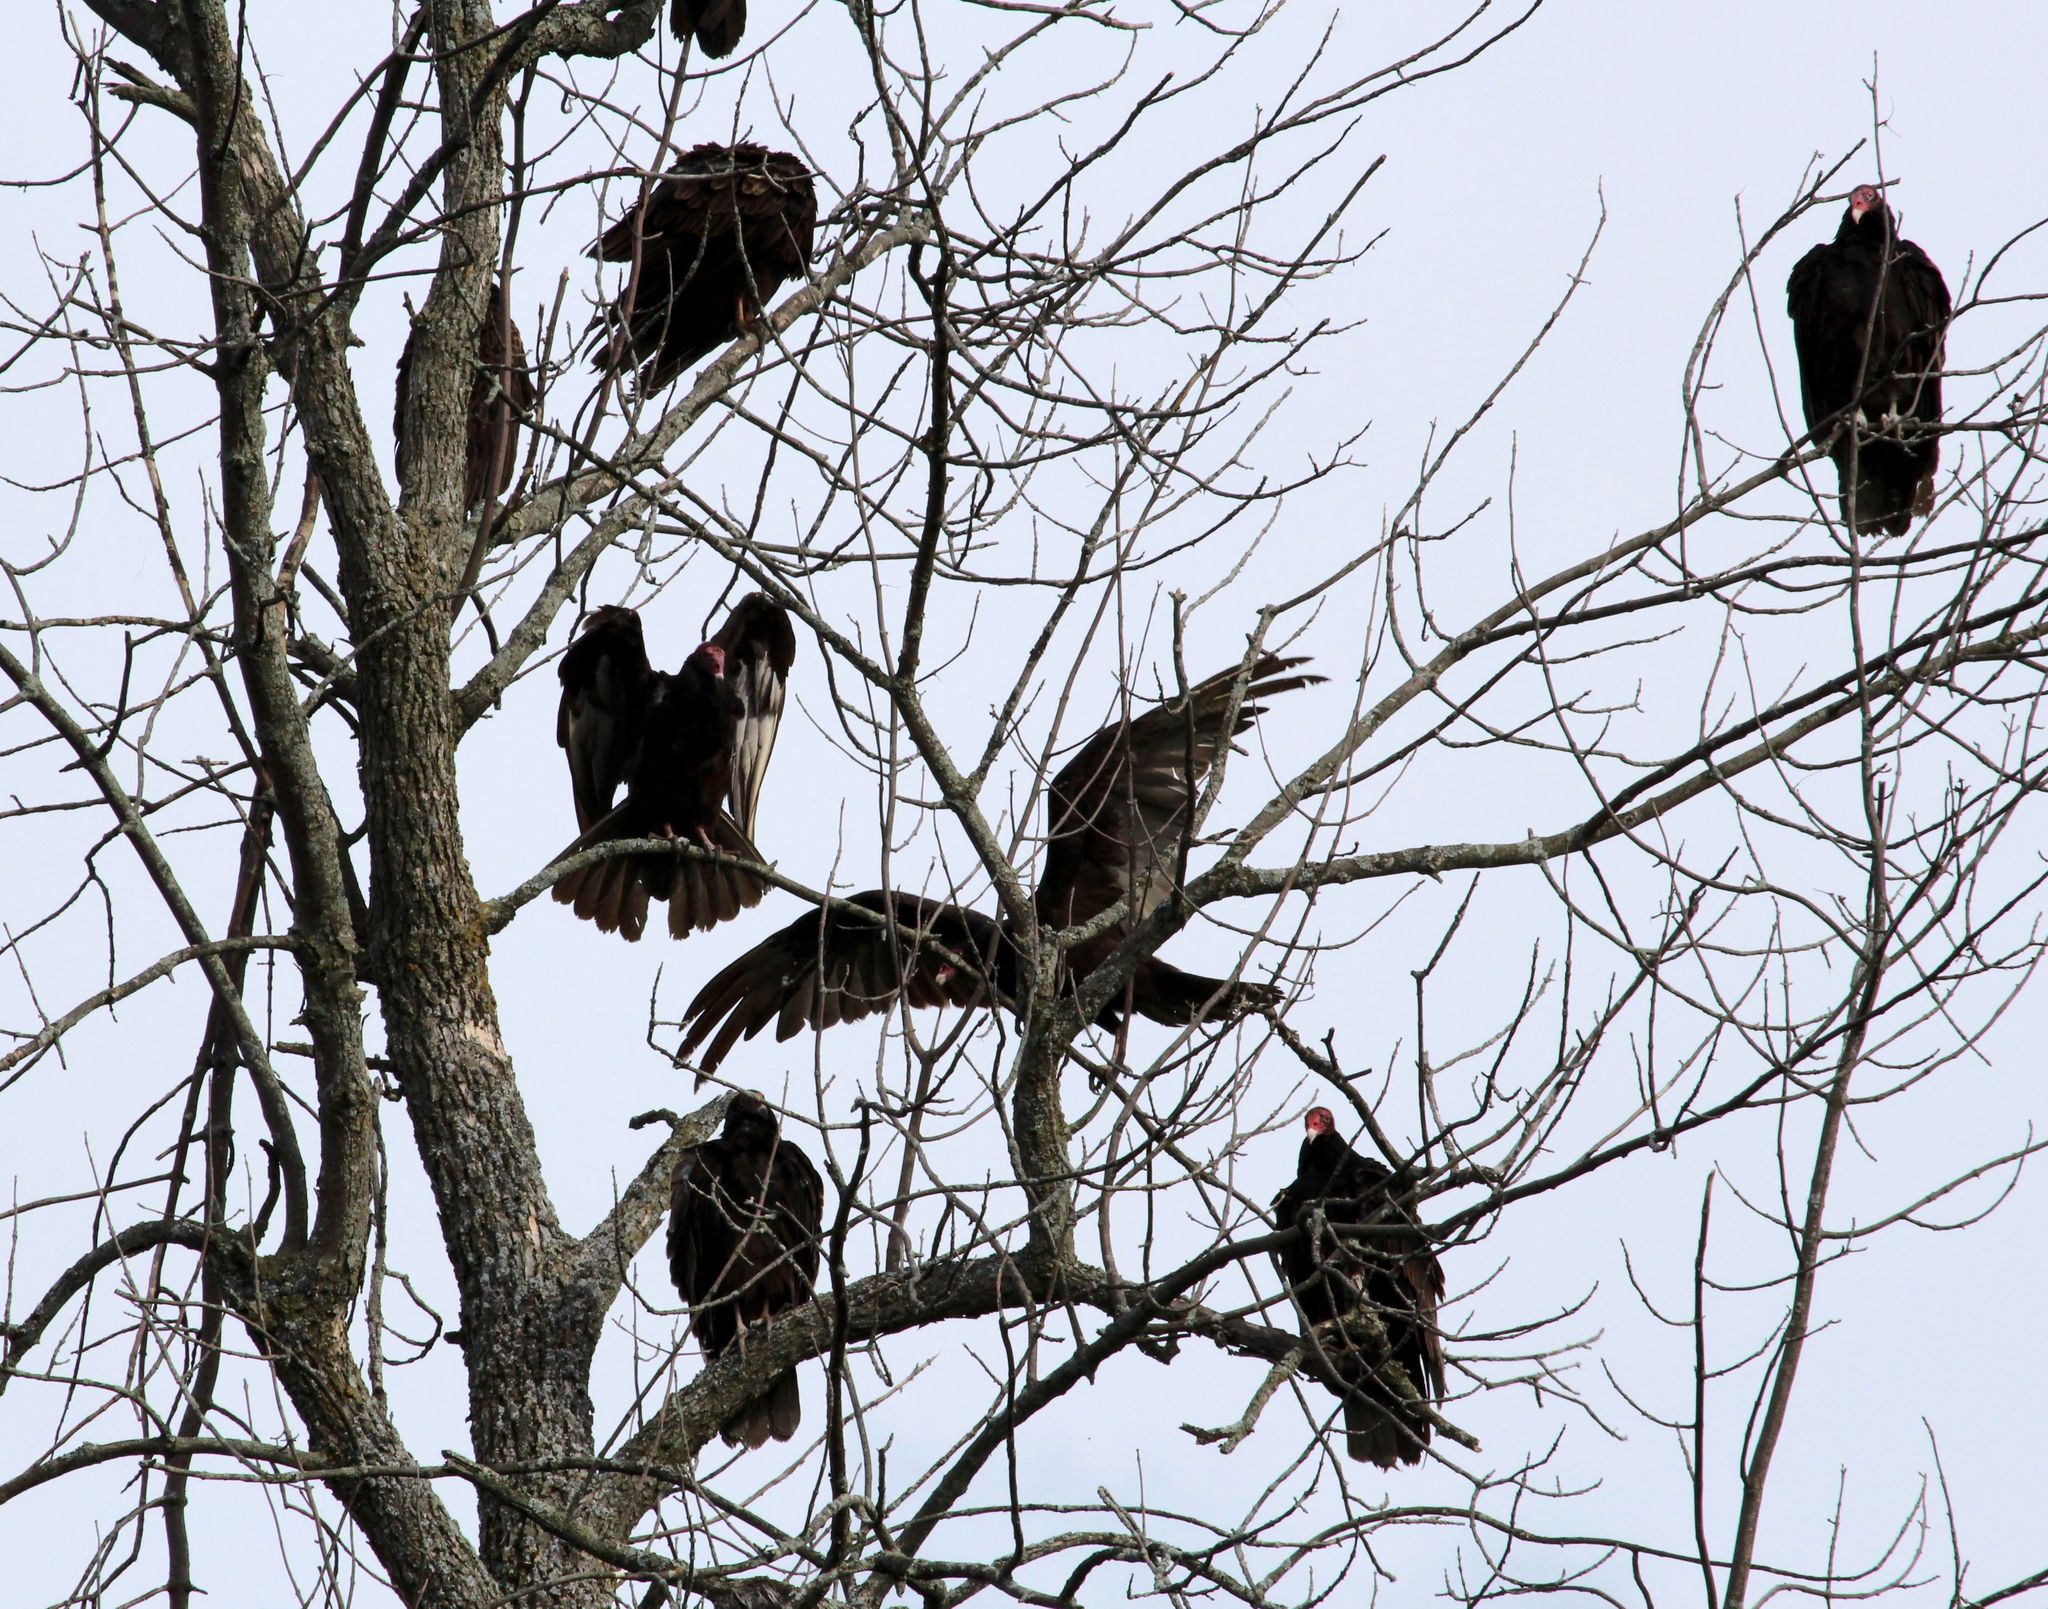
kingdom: Animalia
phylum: Chordata
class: Aves
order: Accipitriformes
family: Cathartidae
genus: Cathartes
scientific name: Cathartes aura
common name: Turkey vulture
